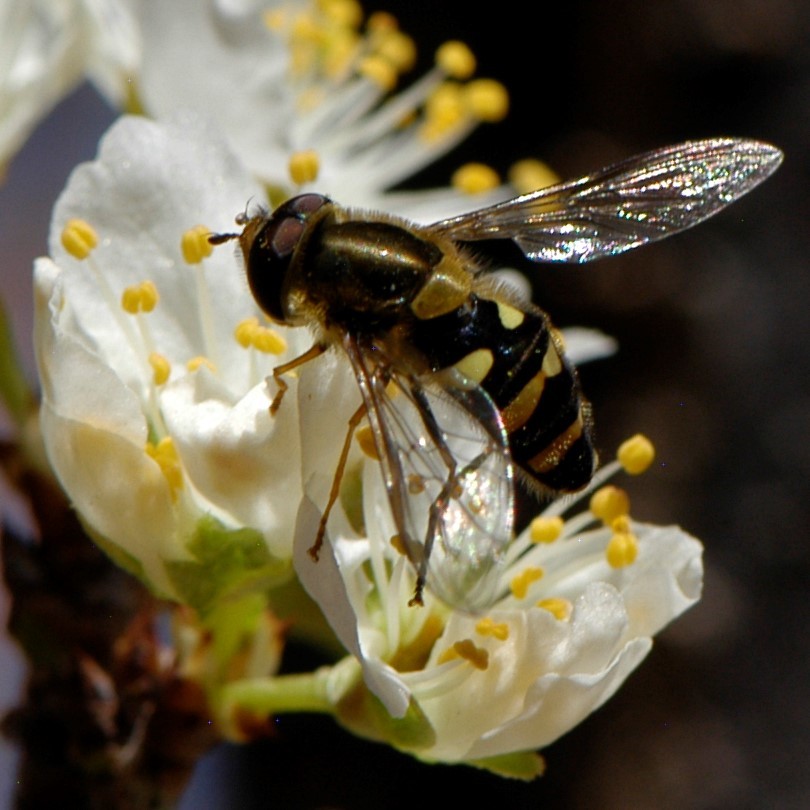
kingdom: Animalia
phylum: Arthropoda
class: Insecta
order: Diptera
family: Syrphidae
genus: Syrphus
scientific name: Syrphus opinator
